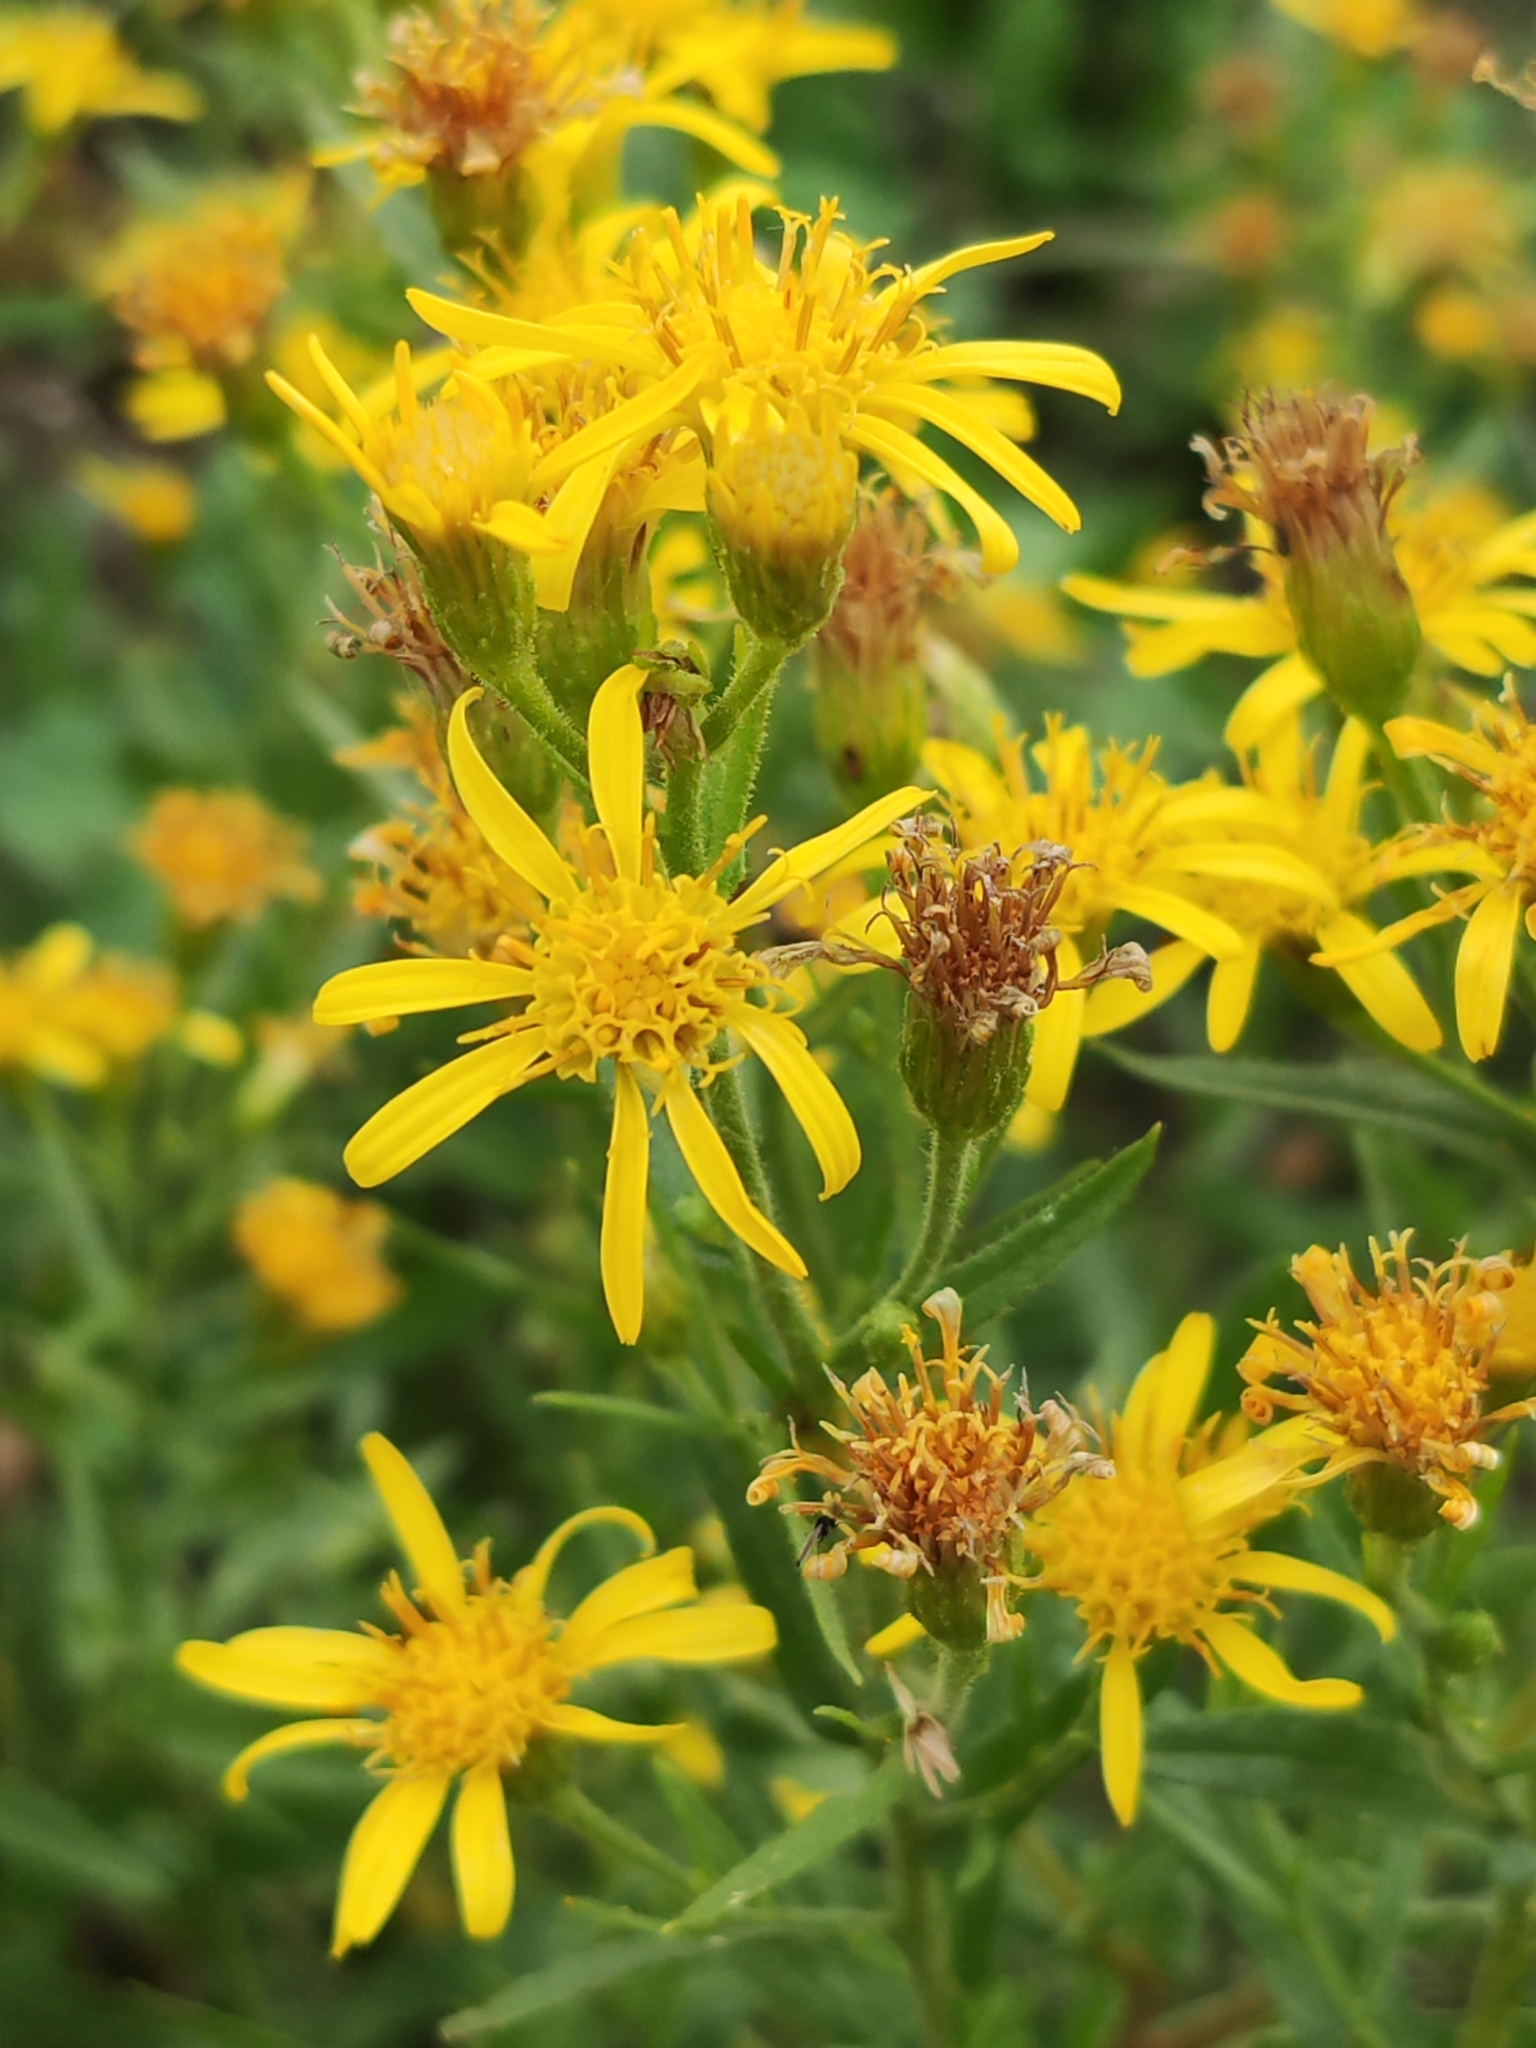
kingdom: Plantae
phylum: Tracheophyta
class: Magnoliopsida
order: Asterales
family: Asteraceae
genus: Dittrichia
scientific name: Dittrichia viscosa
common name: Woody fleabane
